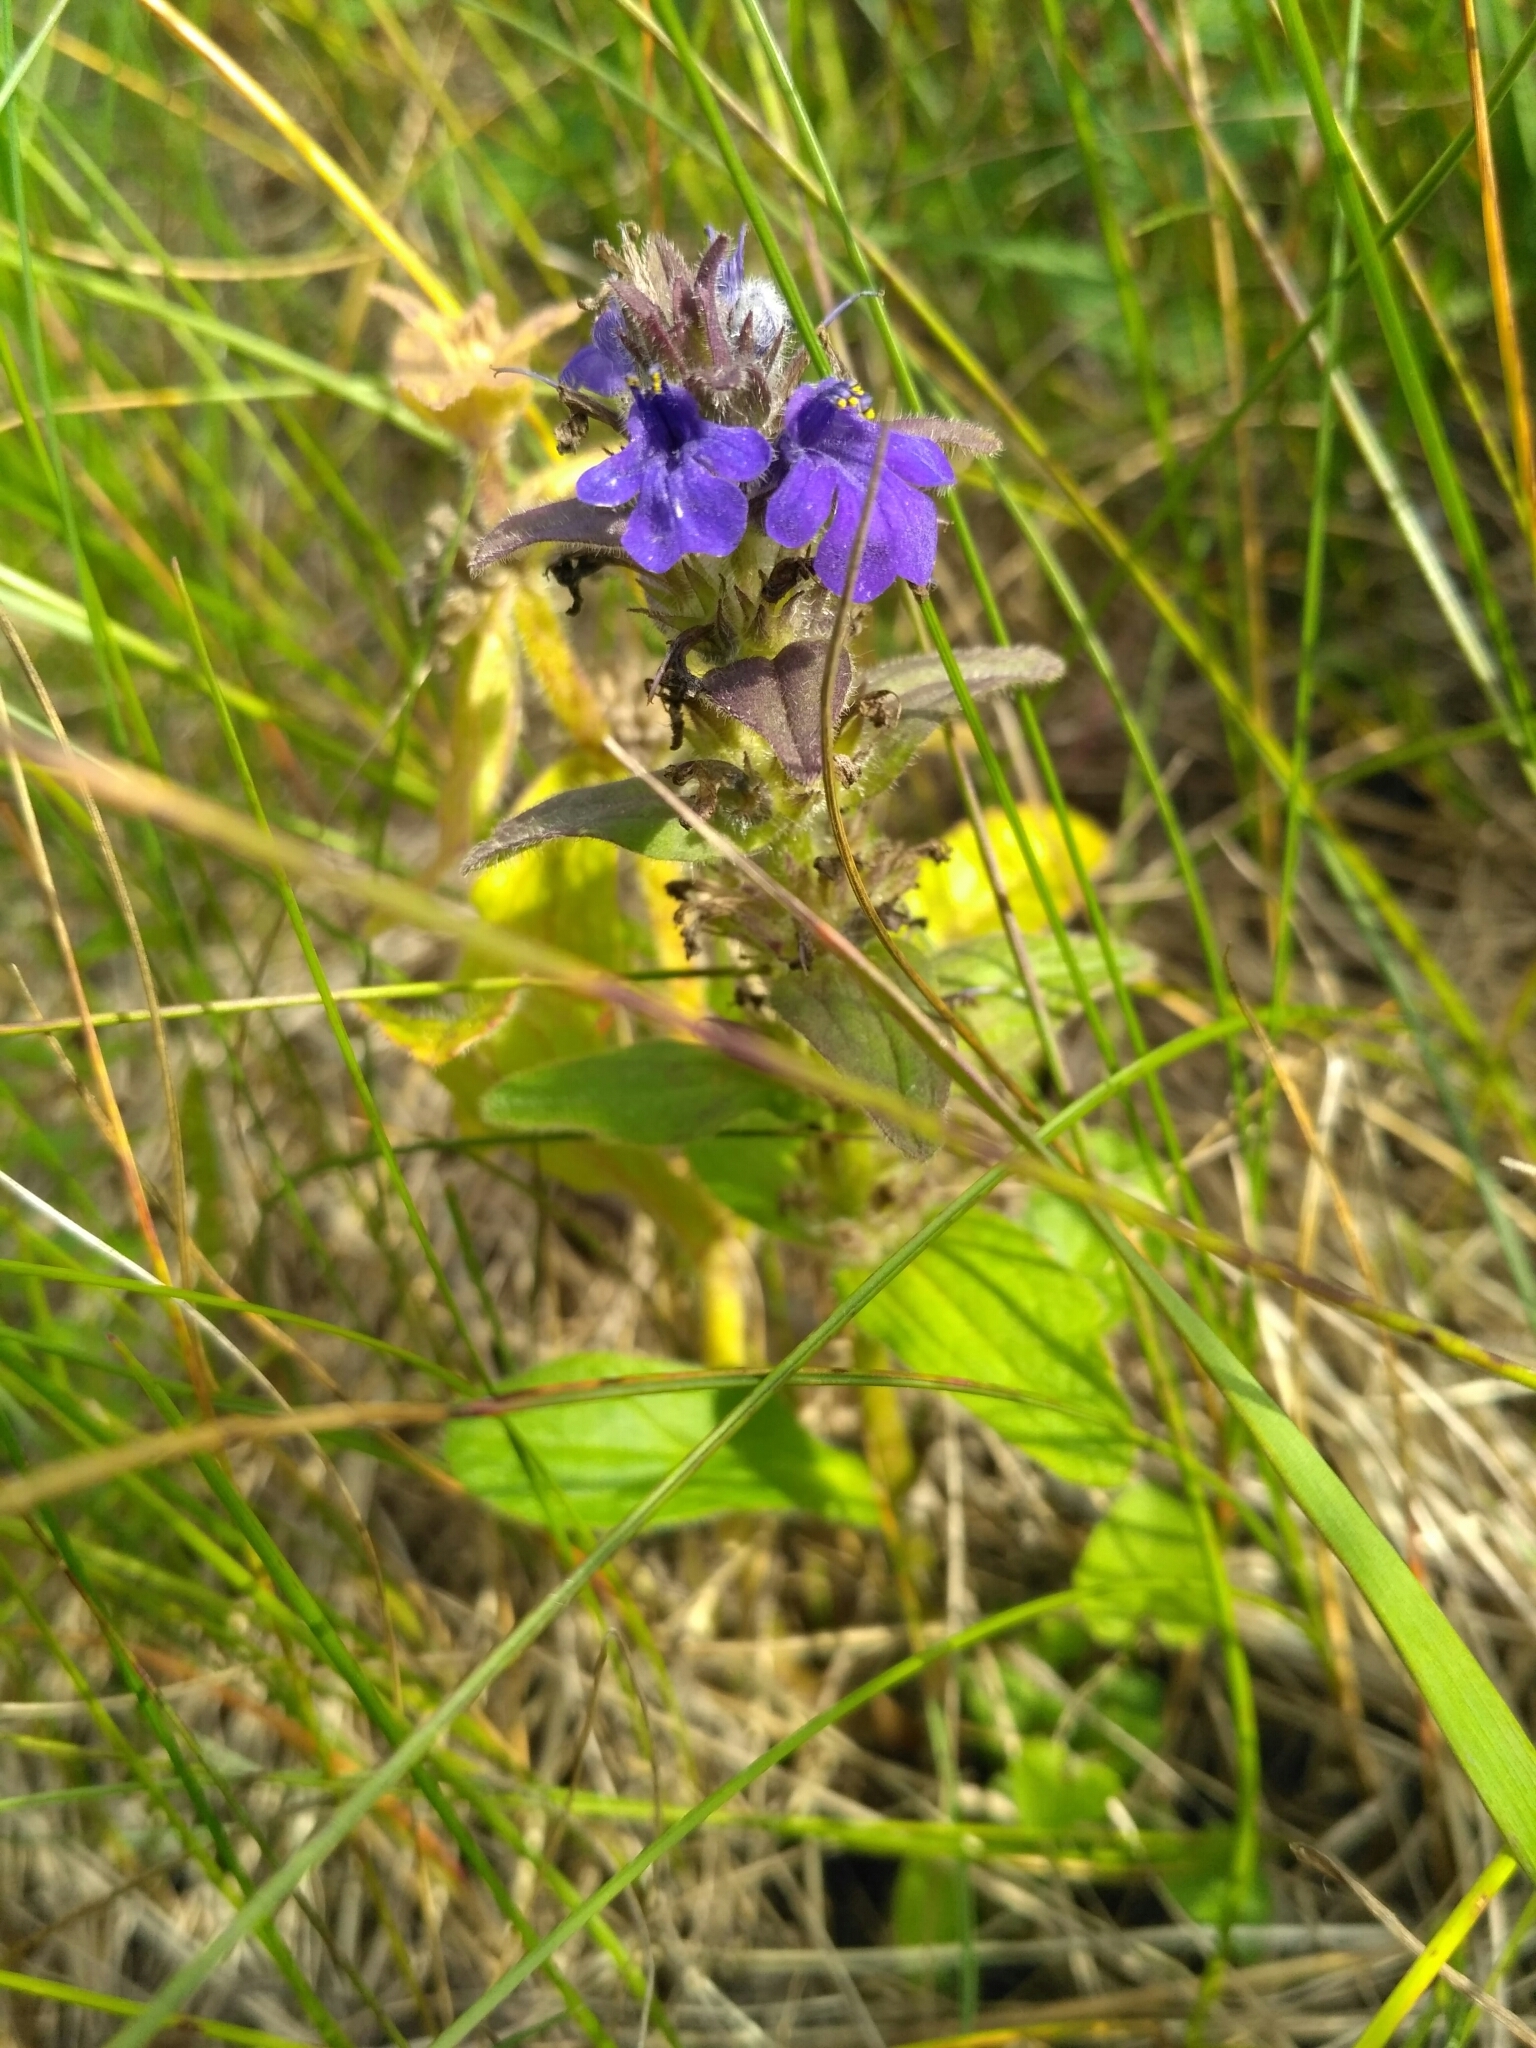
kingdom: Plantae
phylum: Tracheophyta
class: Magnoliopsida
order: Lamiales
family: Lamiaceae
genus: Ajuga
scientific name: Ajuga genevensis
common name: Blue bugle
